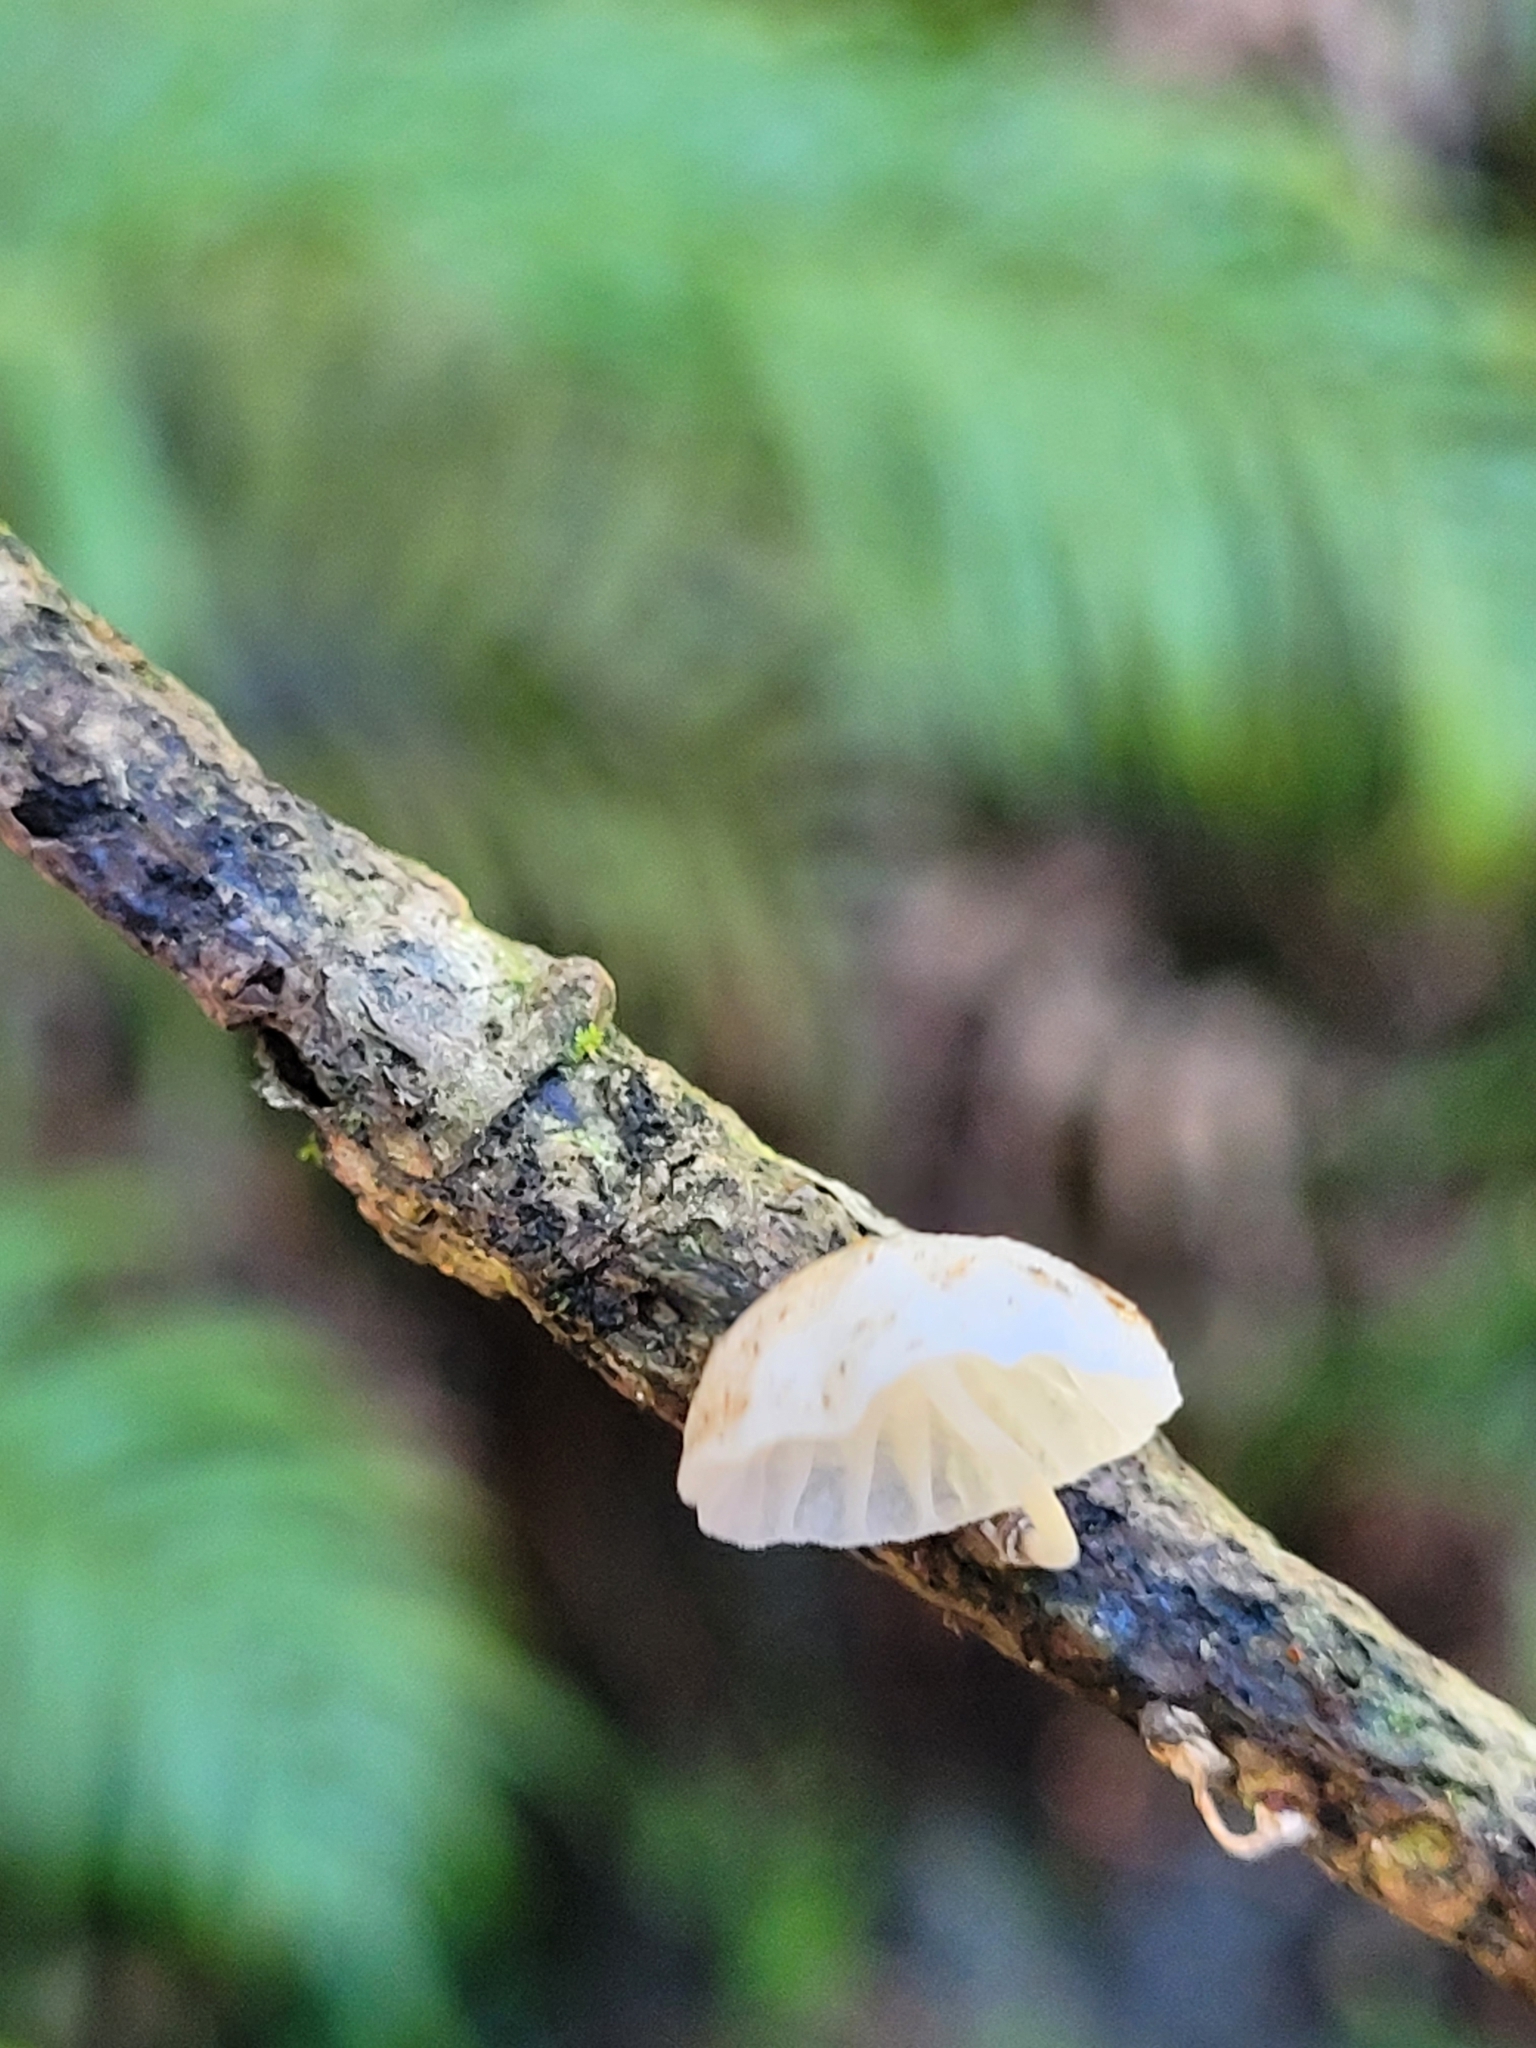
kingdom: Fungi
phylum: Basidiomycota
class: Agaricomycetes
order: Agaricales
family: Omphalotaceae
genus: Marasmiellus
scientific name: Marasmiellus candidus
